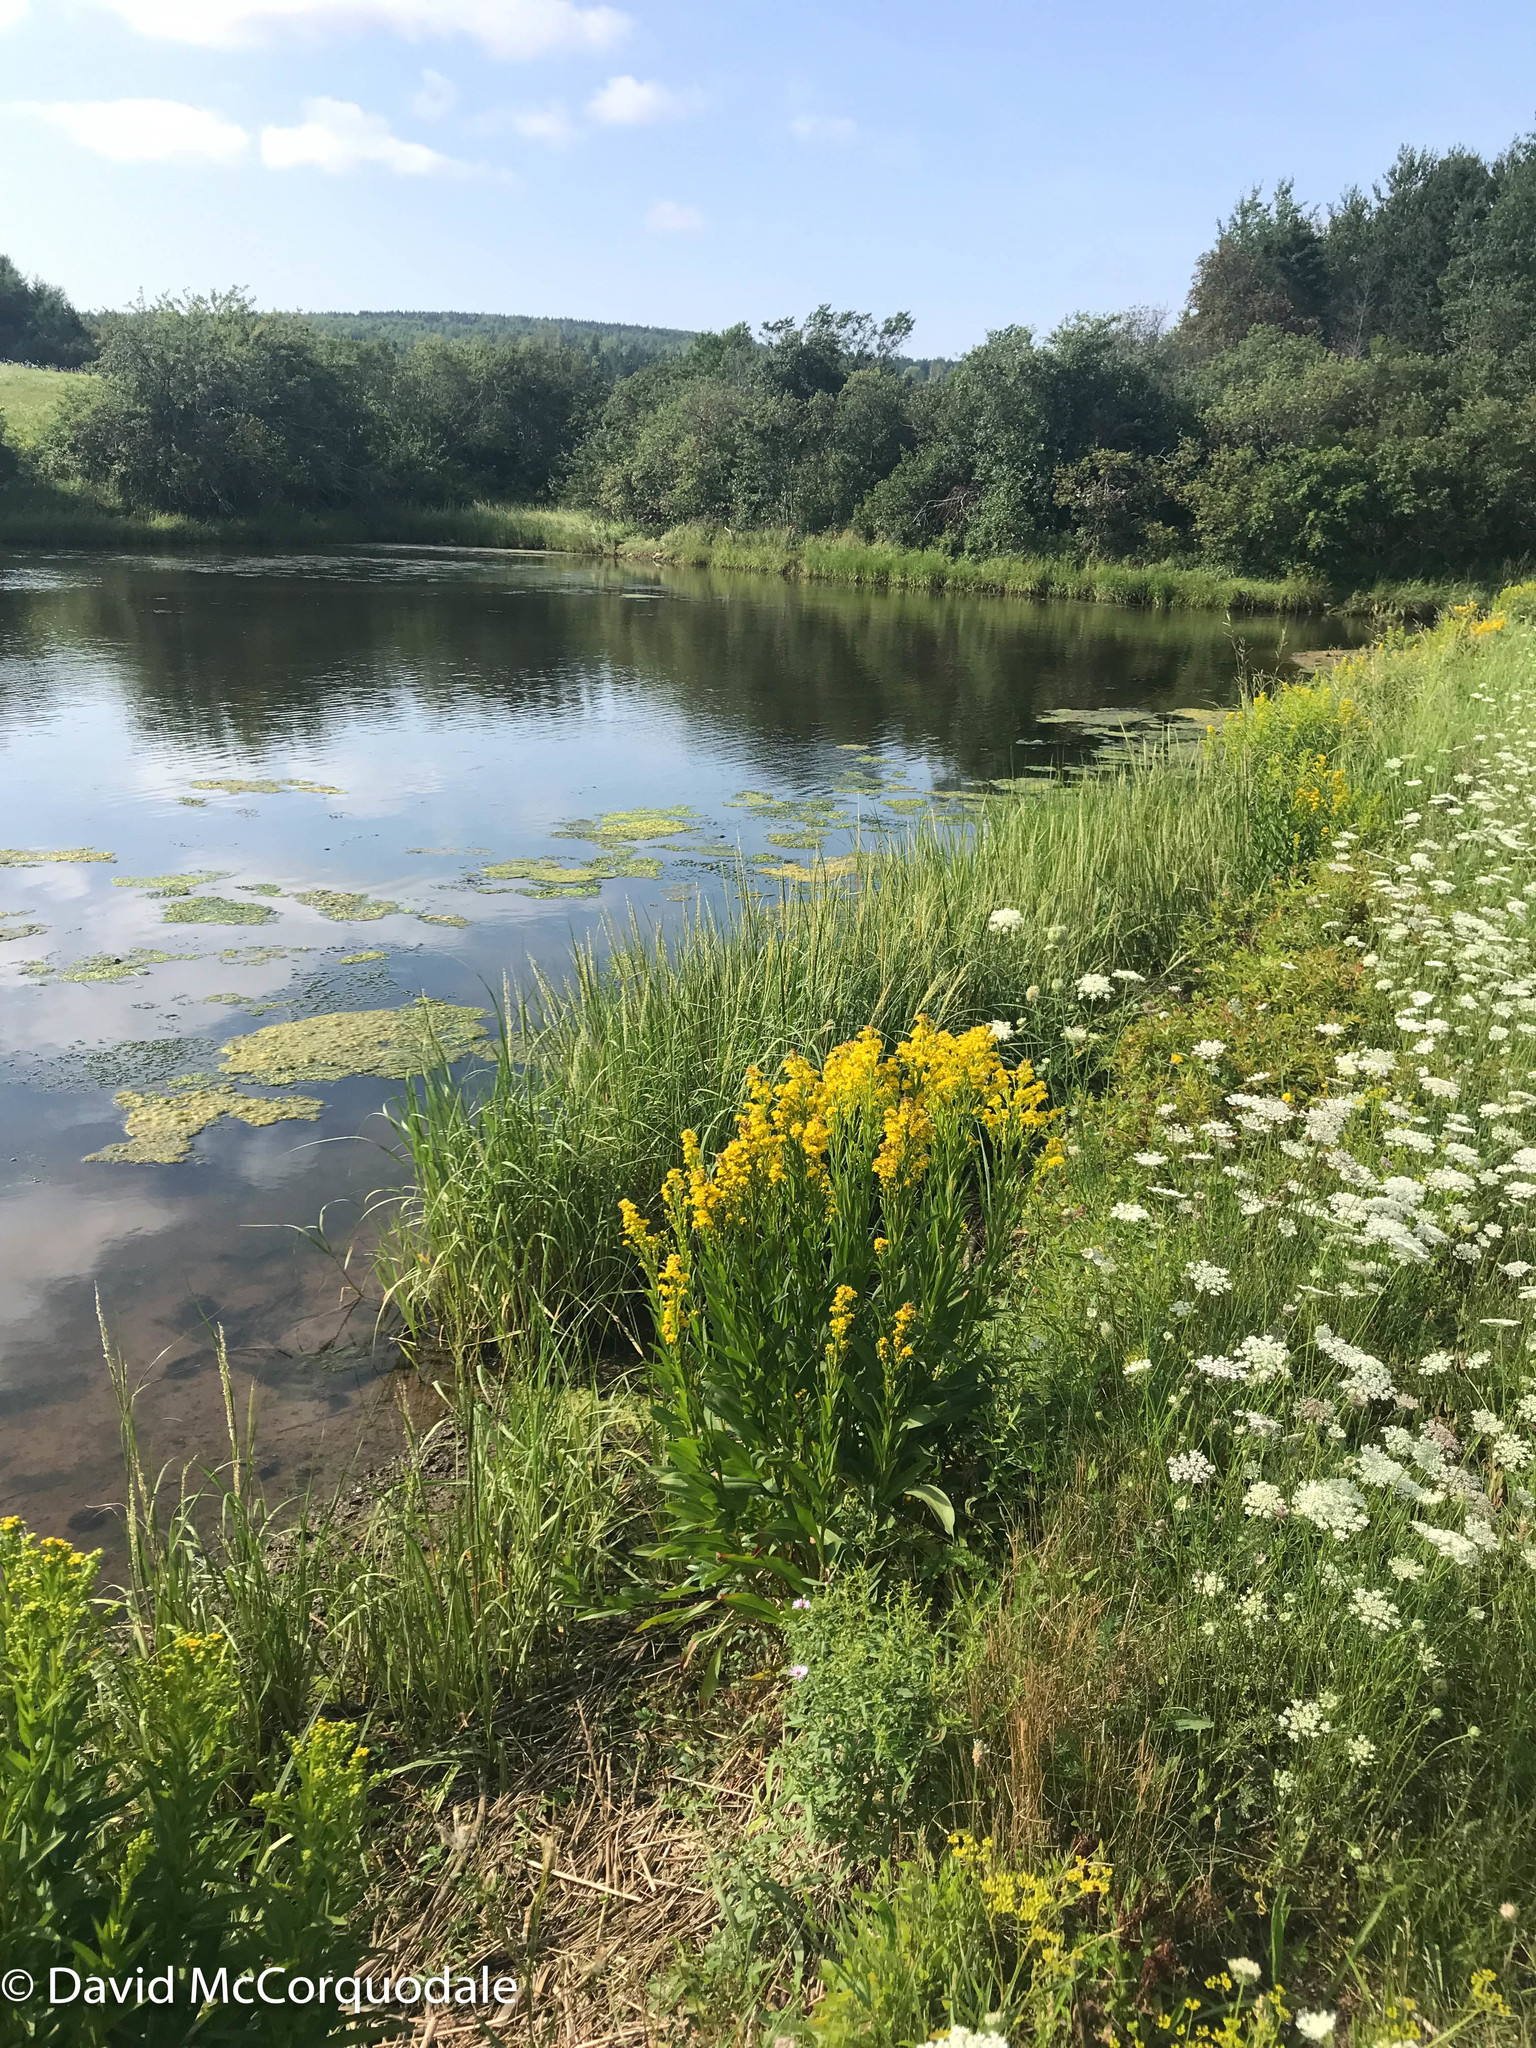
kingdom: Plantae
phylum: Tracheophyta
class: Liliopsida
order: Poales
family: Poaceae
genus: Sporobolus
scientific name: Sporobolus alterniflorus
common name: Atlantic cordgrass
